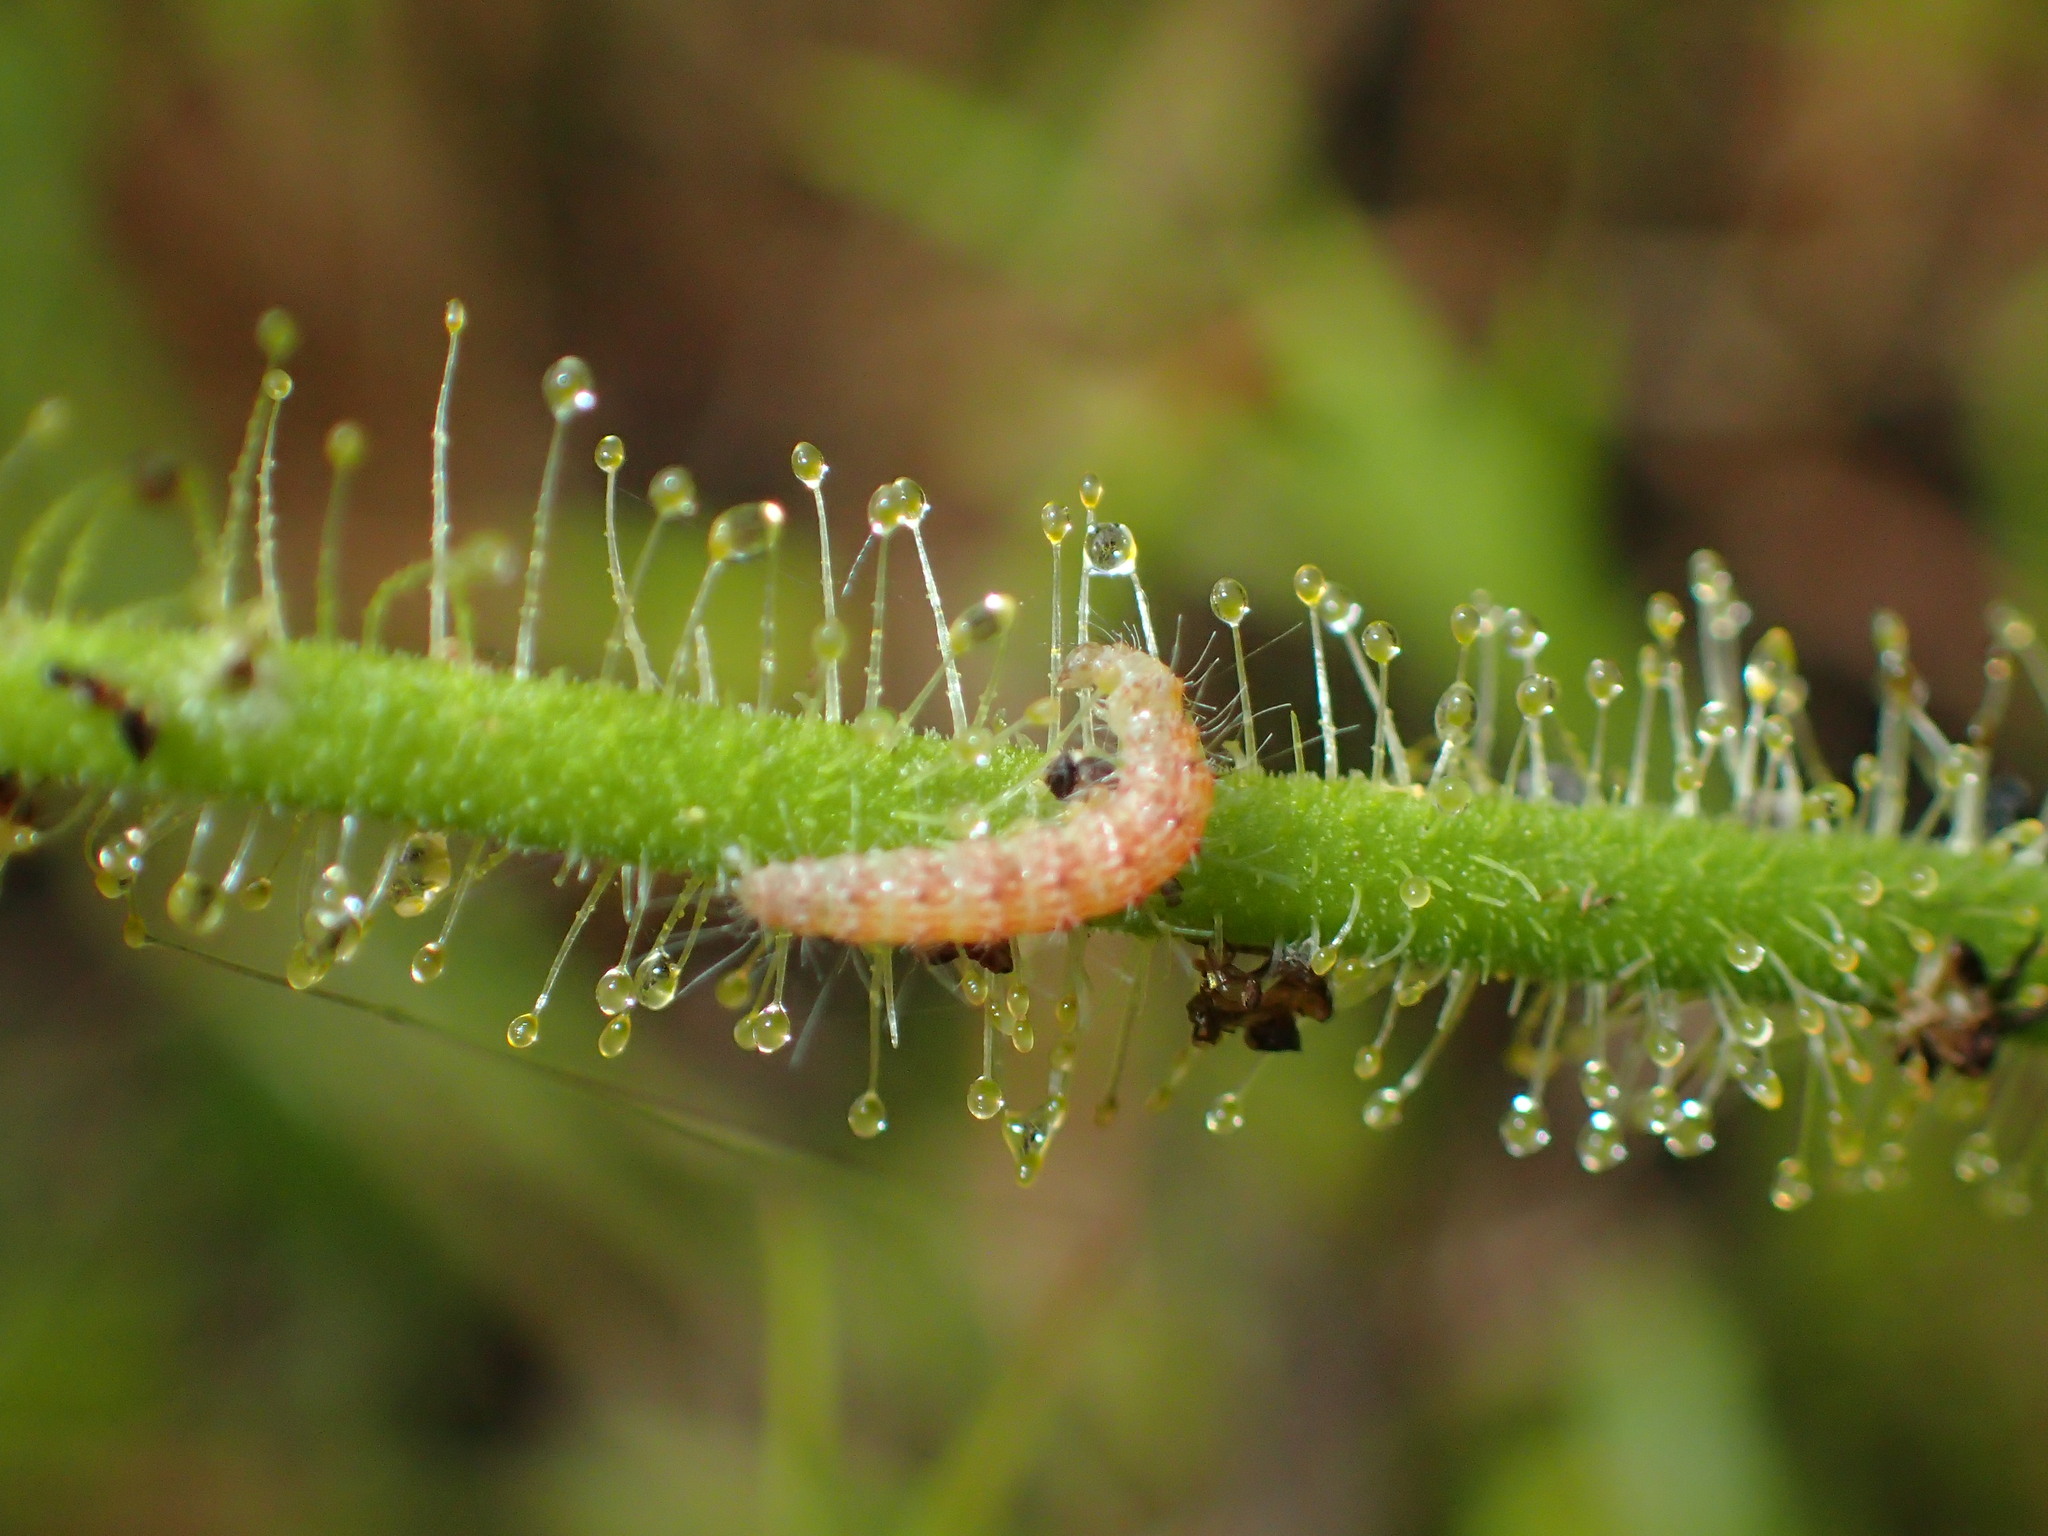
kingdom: Animalia
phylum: Arthropoda
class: Insecta
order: Lepidoptera
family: Pterophoridae
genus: Buckleria
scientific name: Buckleria paludum
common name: Marsh plume
